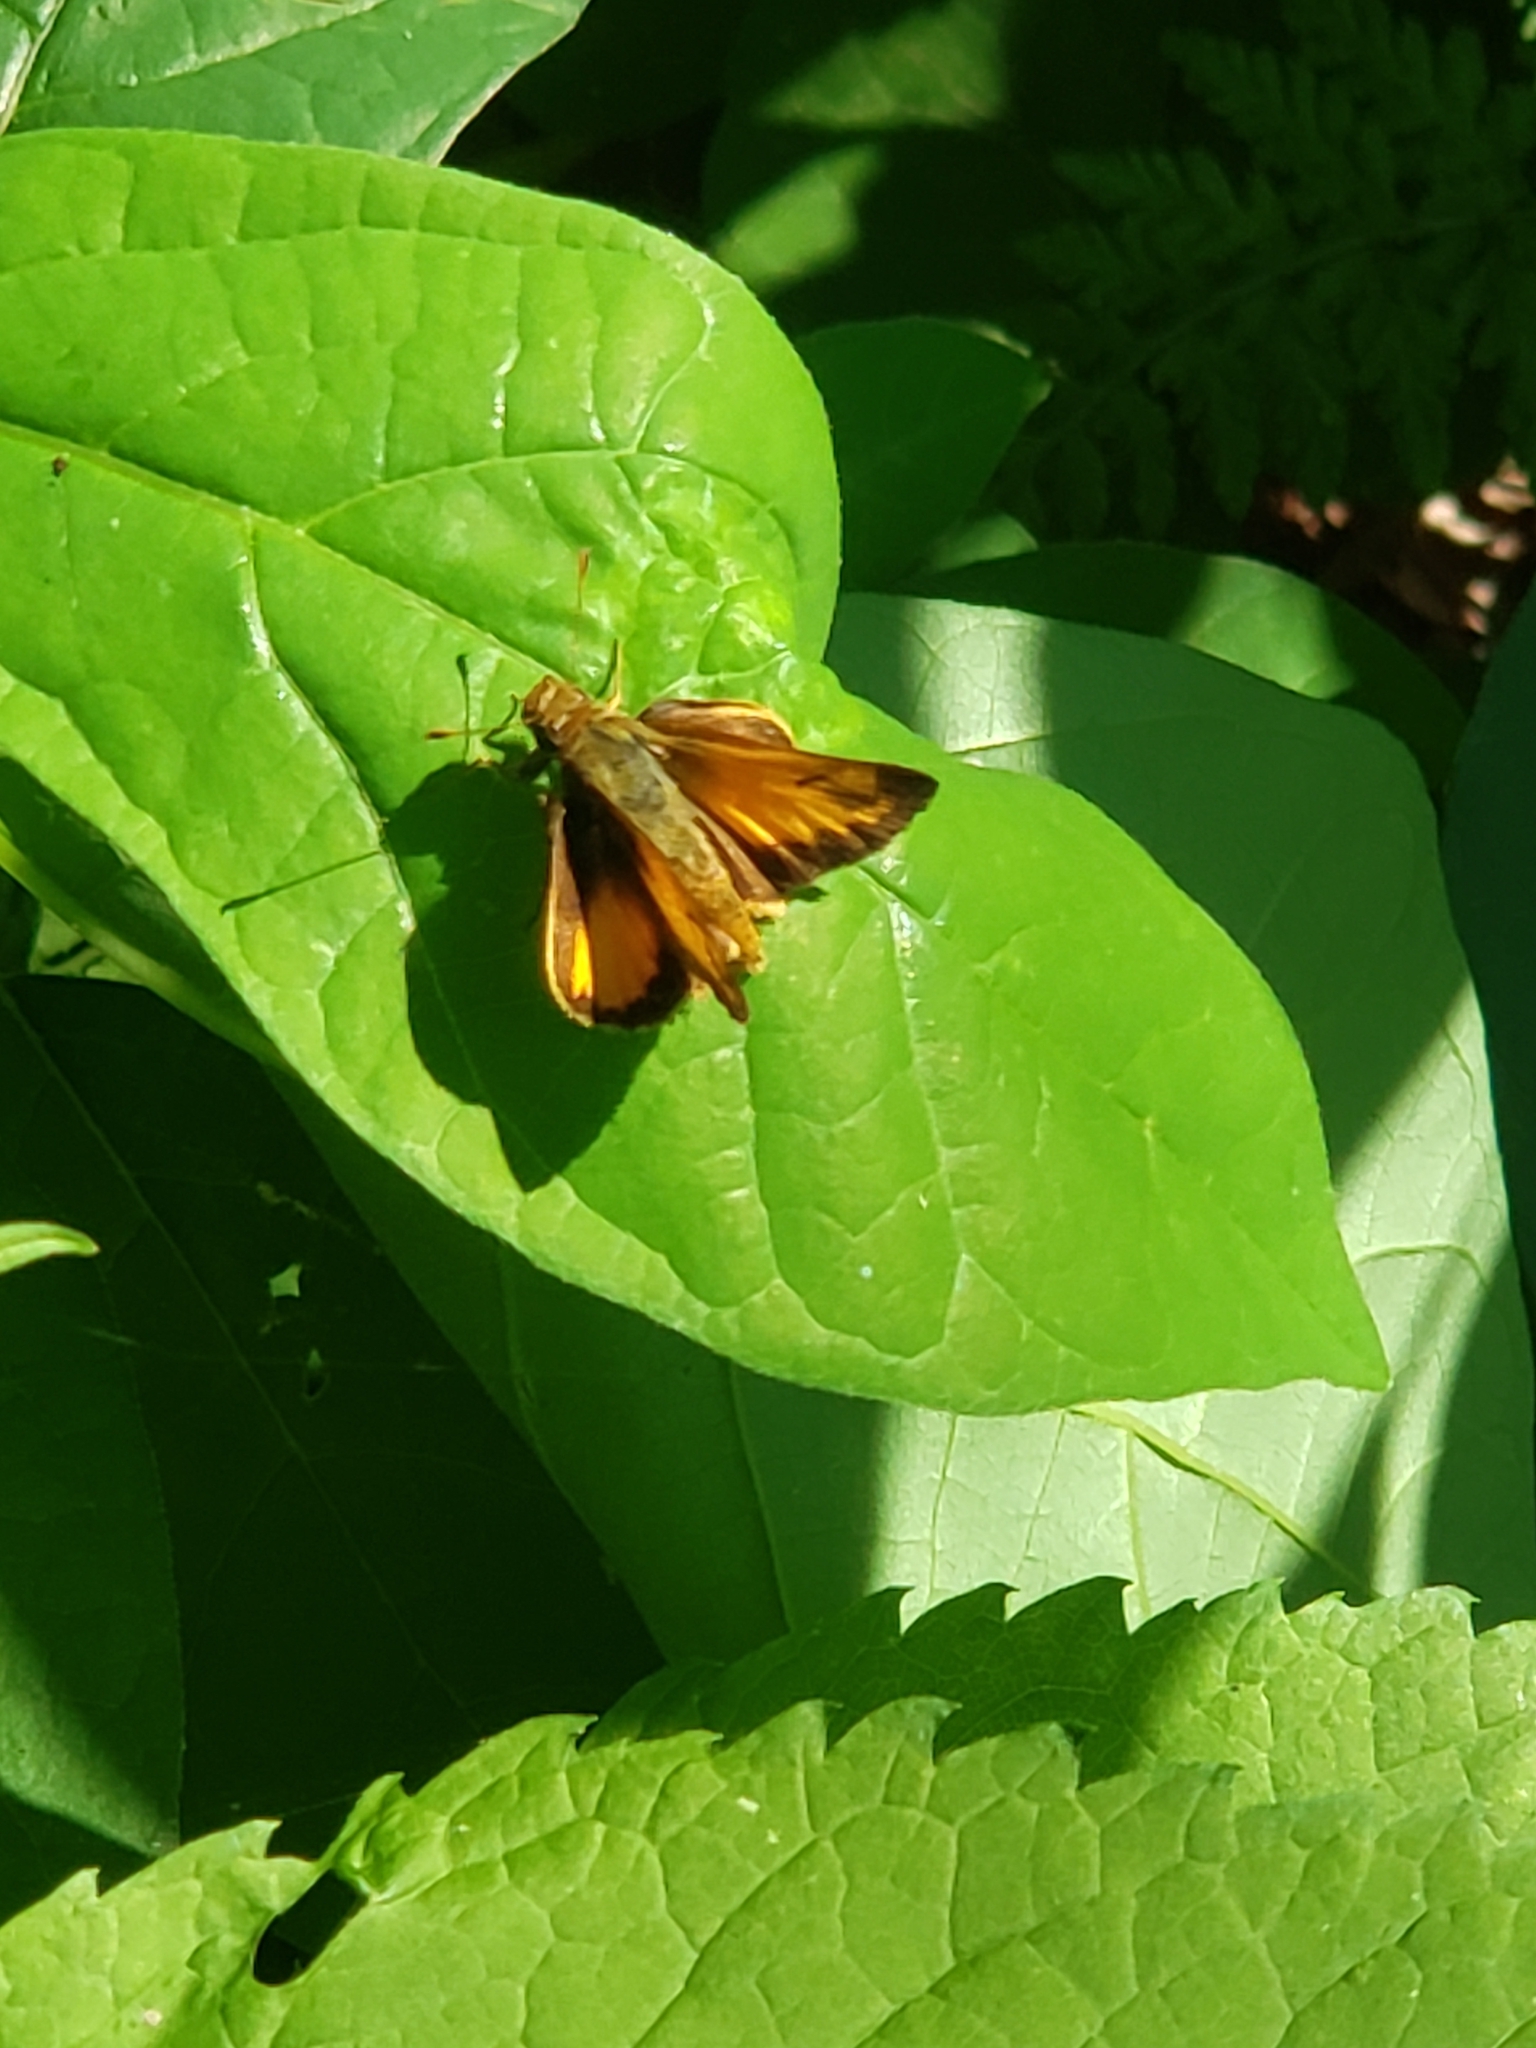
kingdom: Animalia
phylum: Arthropoda
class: Insecta
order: Lepidoptera
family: Hesperiidae
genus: Lon
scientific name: Lon zabulon
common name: Zabulon skipper
